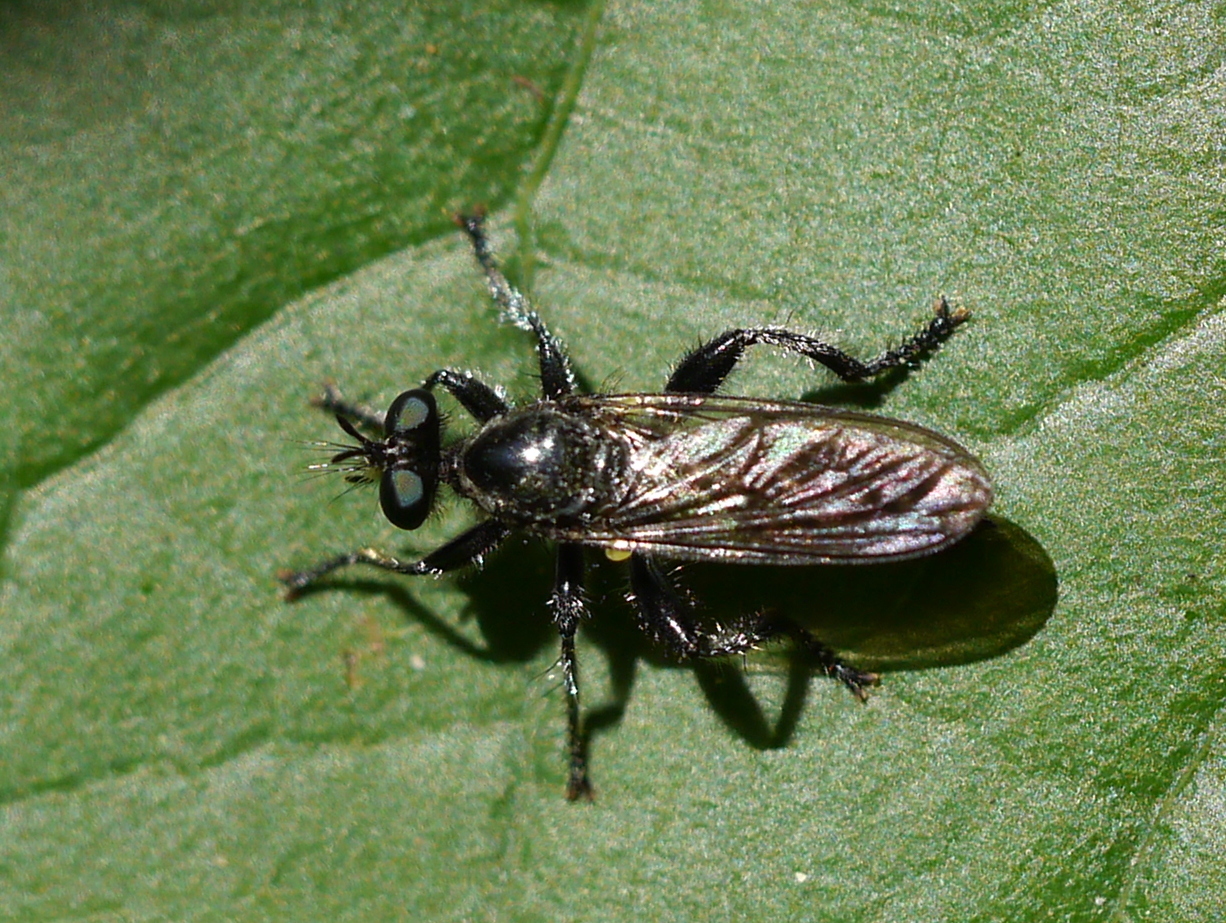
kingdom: Animalia
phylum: Arthropoda
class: Insecta
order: Diptera
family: Asilidae
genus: Laphria
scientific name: Laphria
